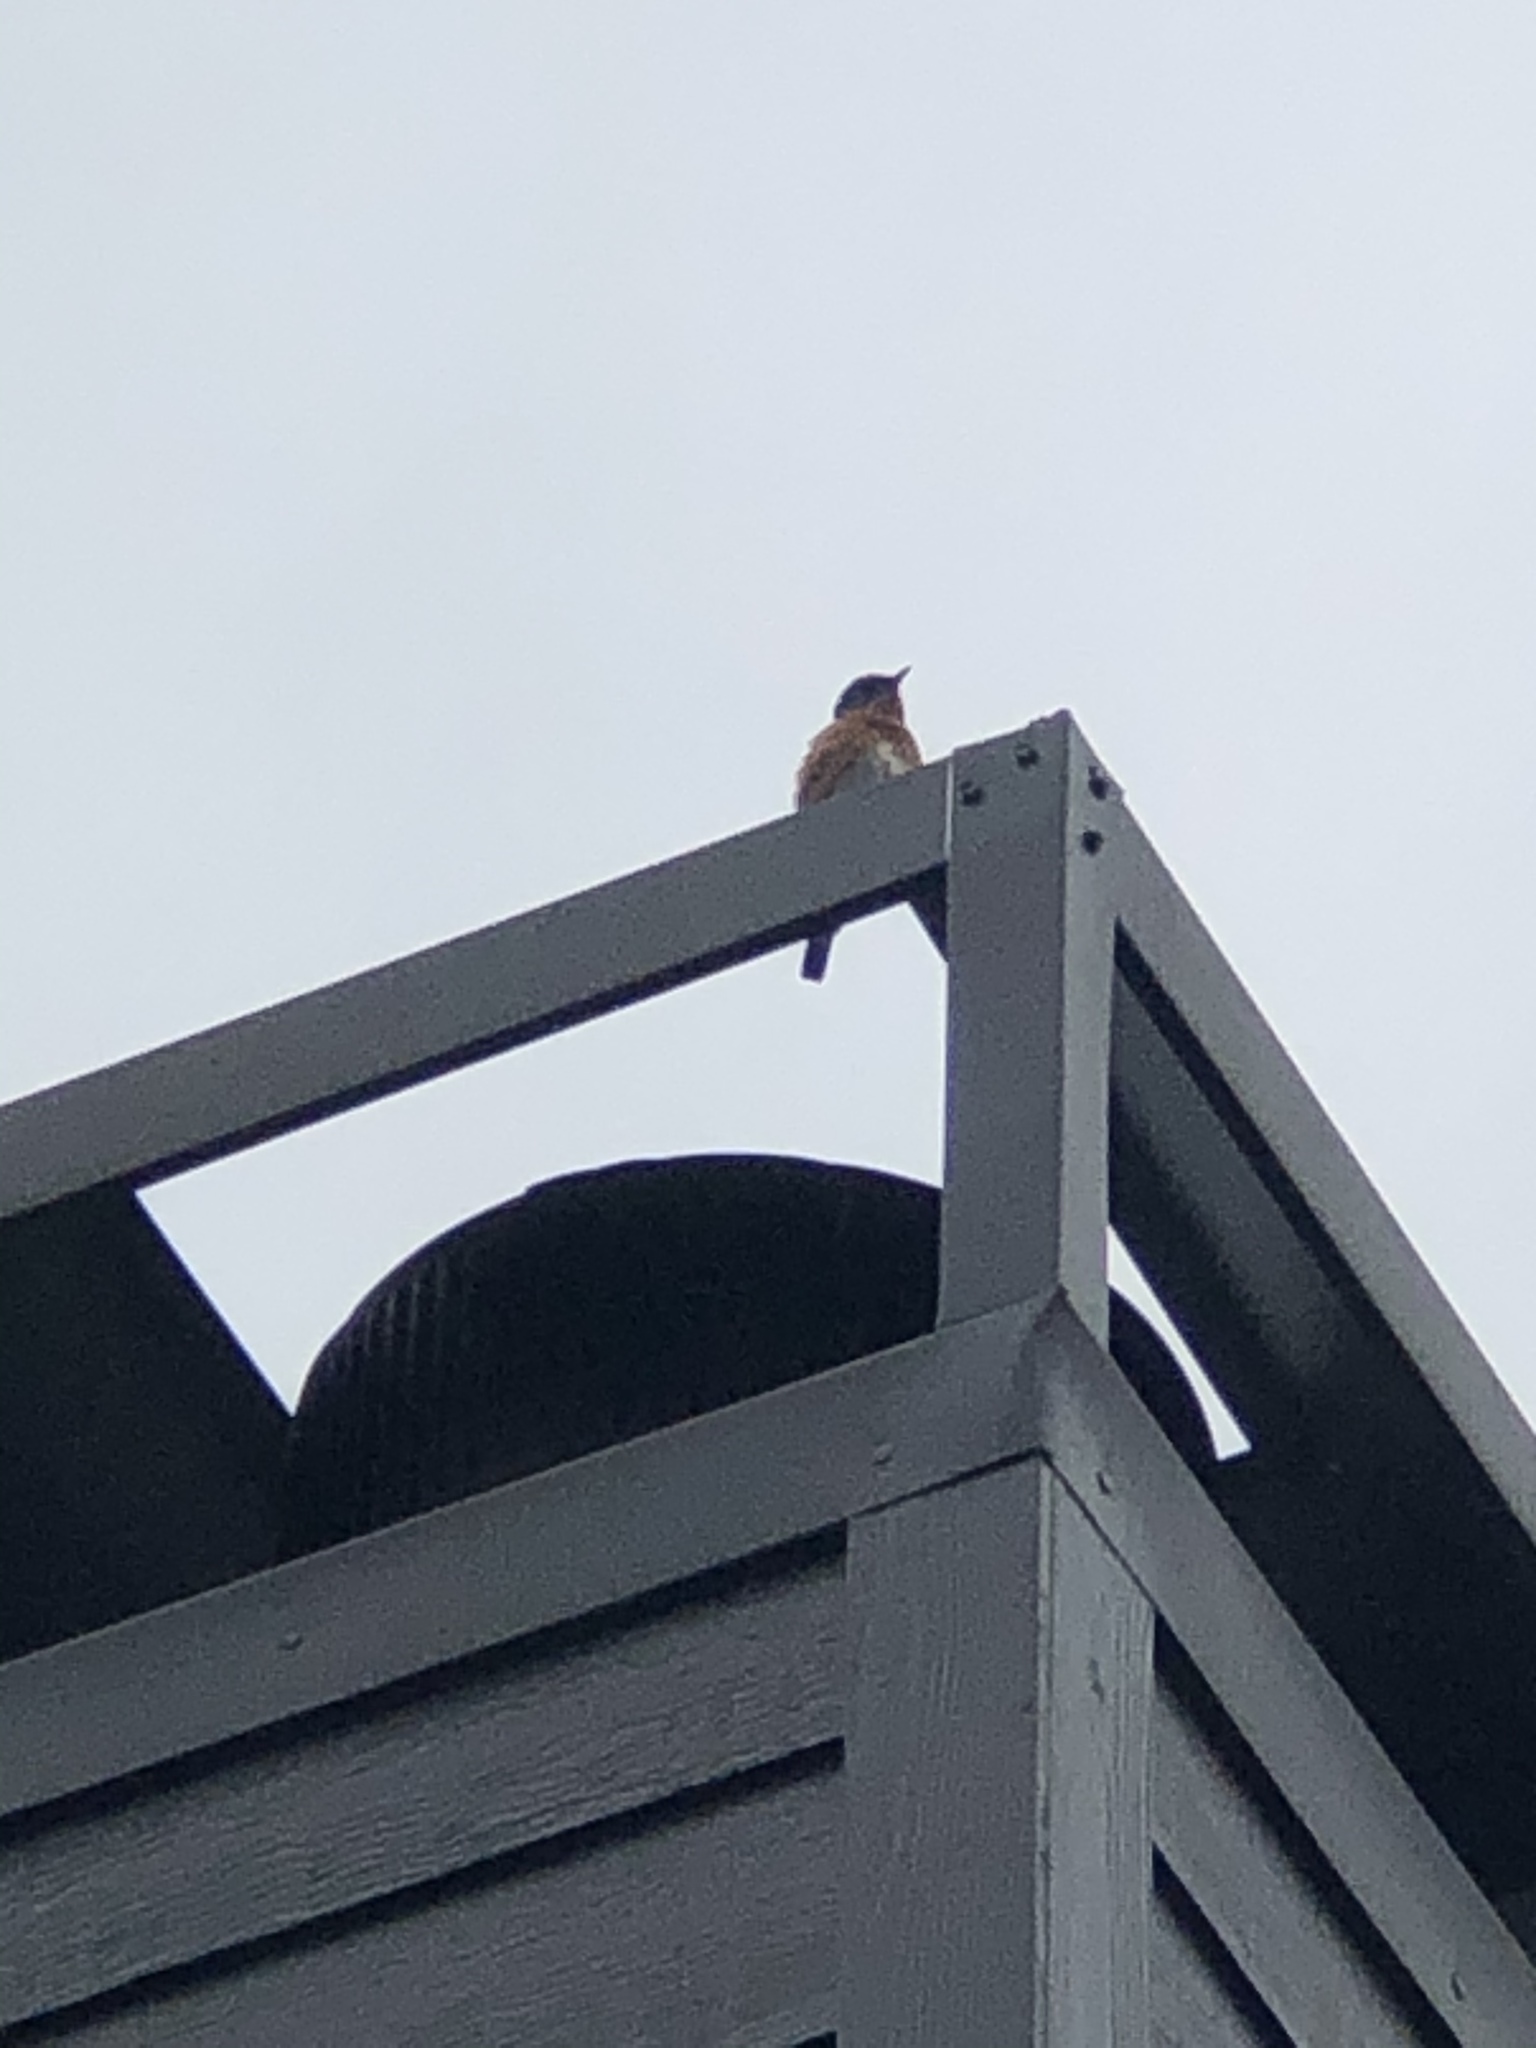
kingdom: Animalia
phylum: Chordata
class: Aves
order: Passeriformes
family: Turdidae
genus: Sialia
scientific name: Sialia sialis
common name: Eastern bluebird
